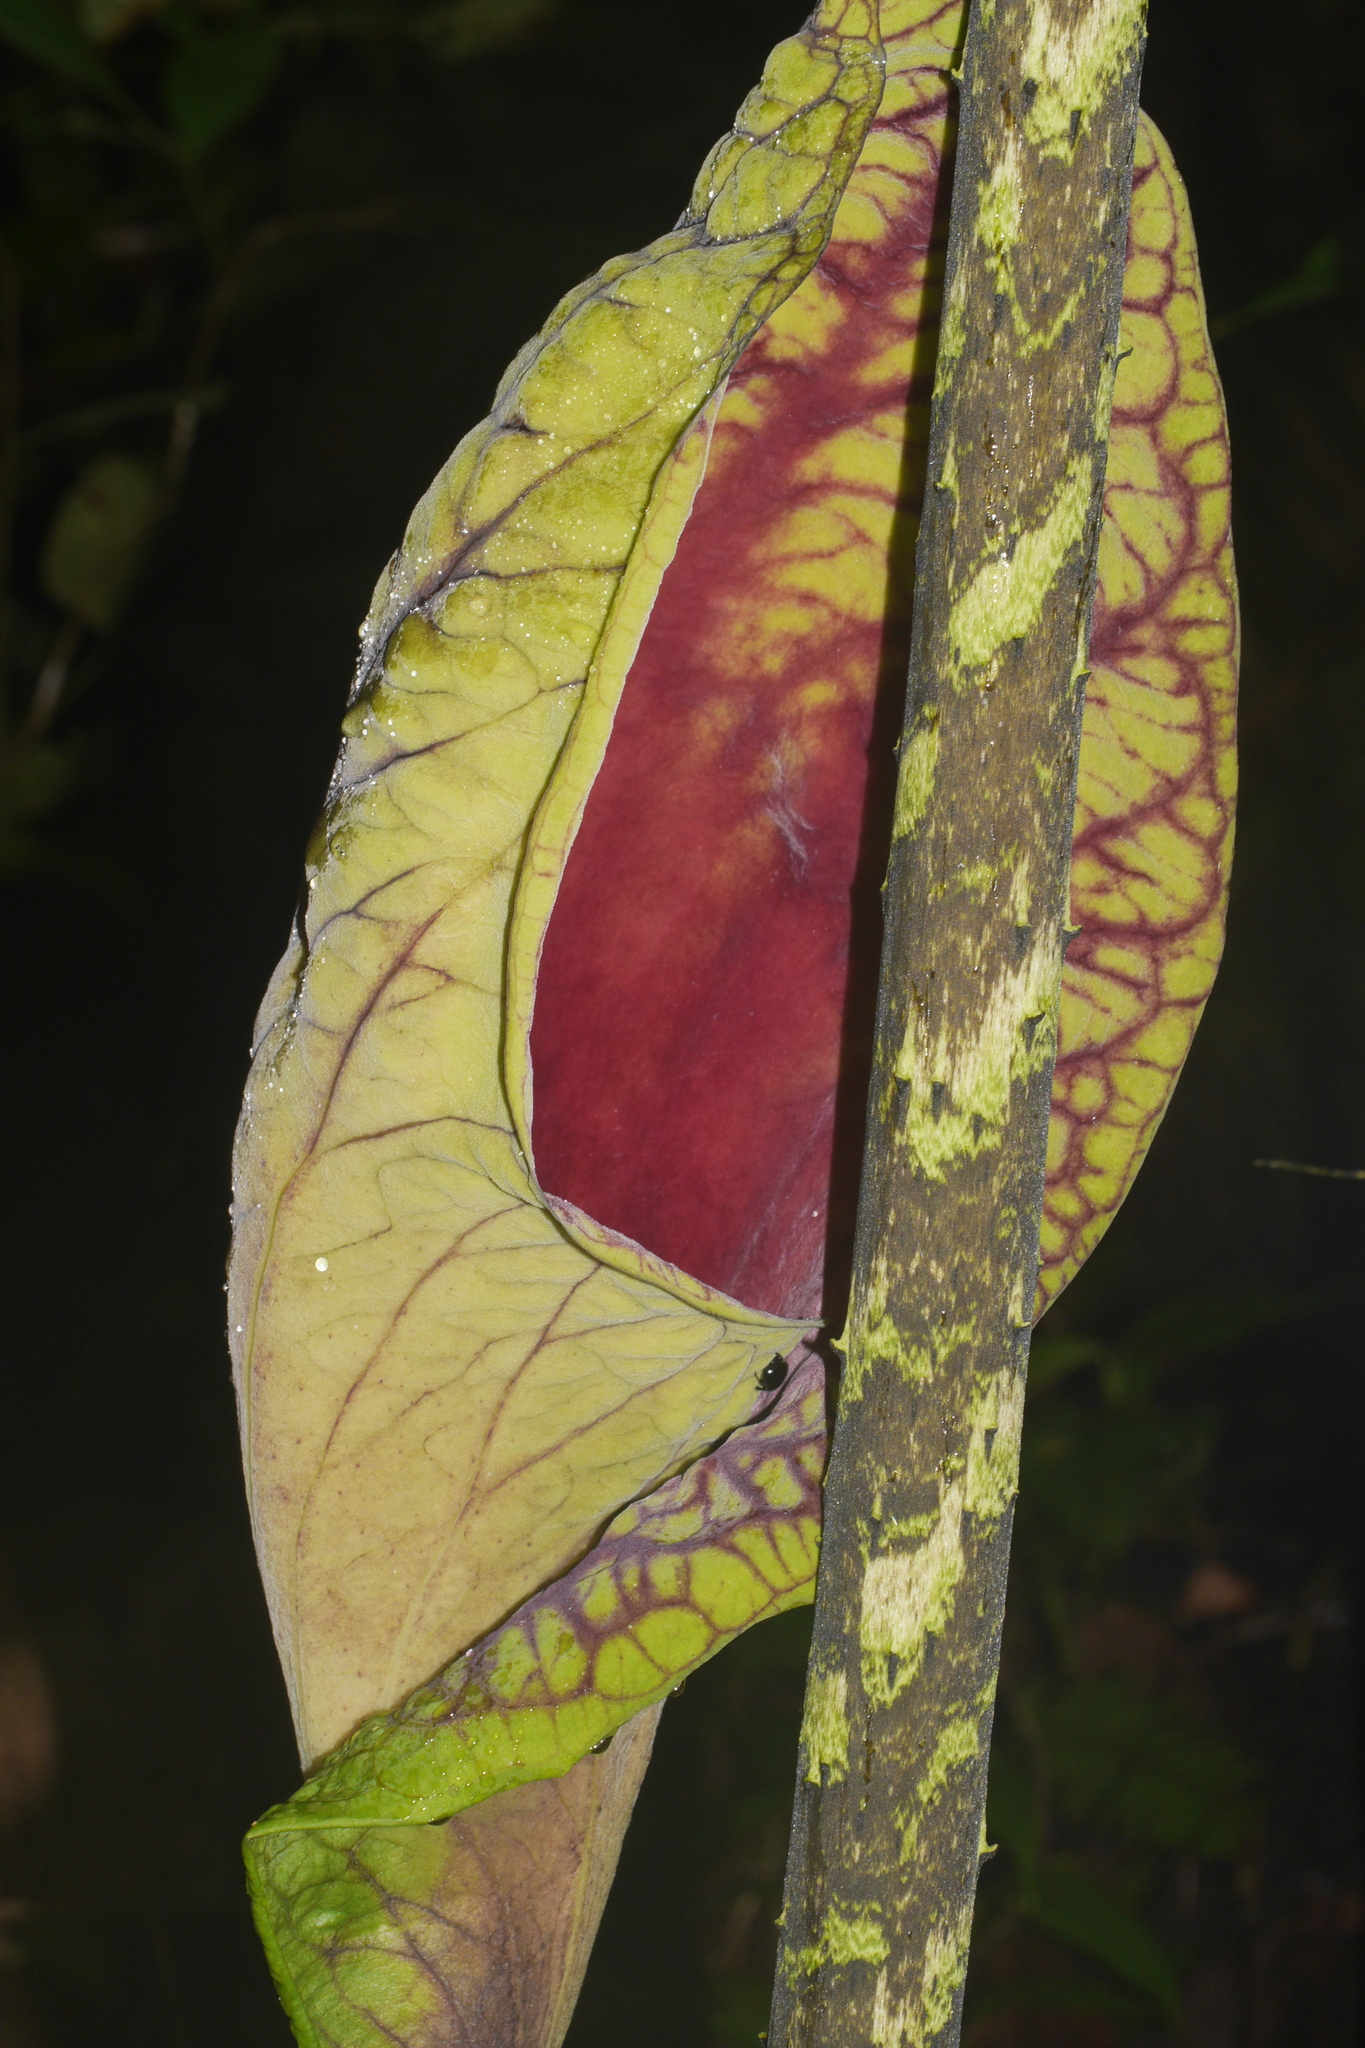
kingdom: Plantae
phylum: Tracheophyta
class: Liliopsida
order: Alismatales
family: Araceae
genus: Dracontium
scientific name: Dracontium croatii
